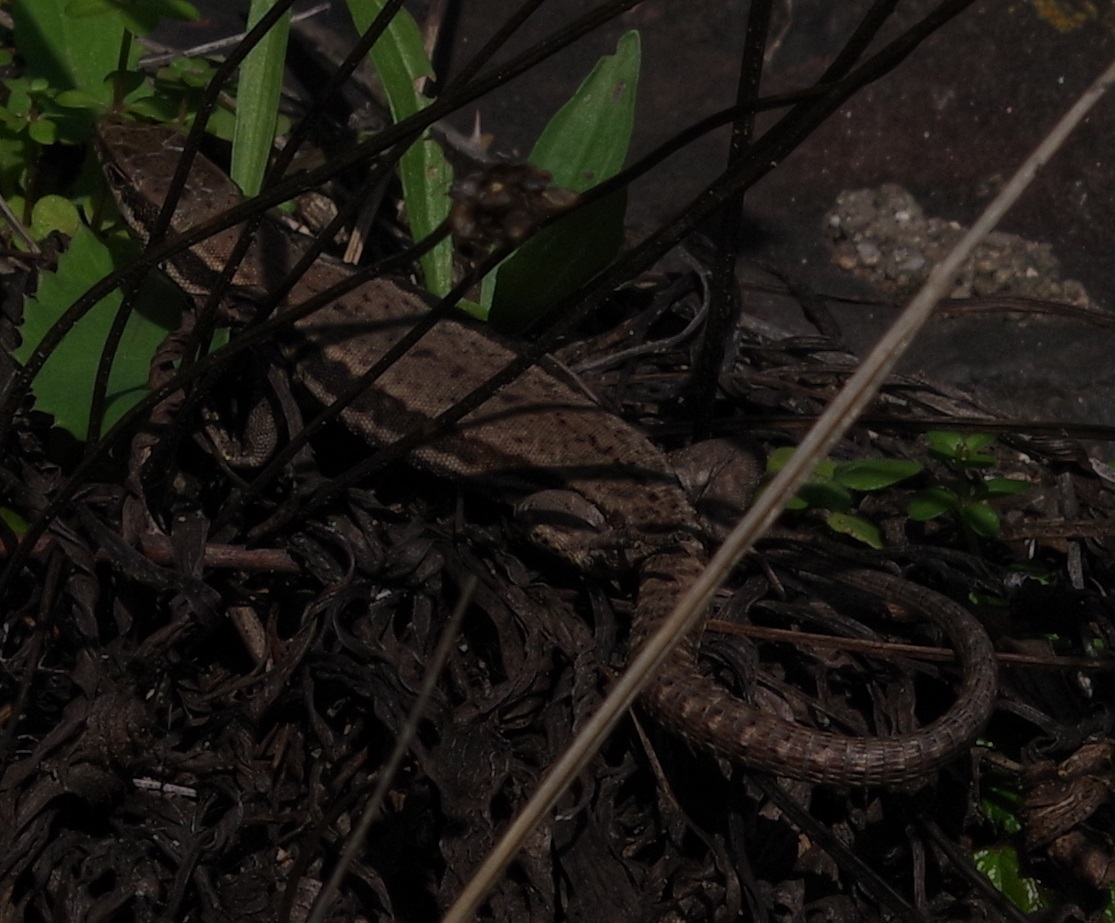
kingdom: Animalia
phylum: Chordata
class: Squamata
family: Lacertidae
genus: Podarcis
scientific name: Podarcis muralis
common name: Common wall lizard
